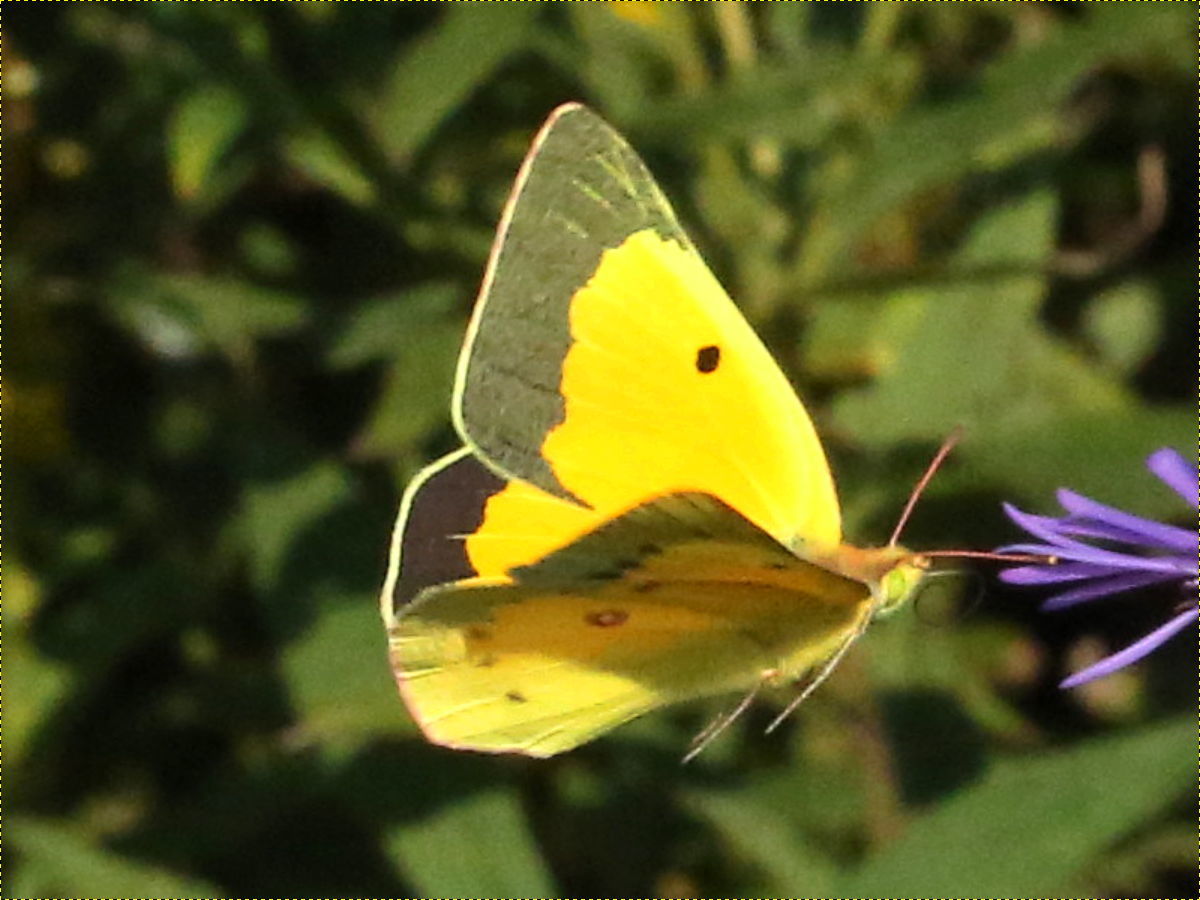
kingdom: Animalia
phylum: Arthropoda
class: Insecta
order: Lepidoptera
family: Pieridae
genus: Colias
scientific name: Colias eurytheme
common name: Alfalfa butterfly
